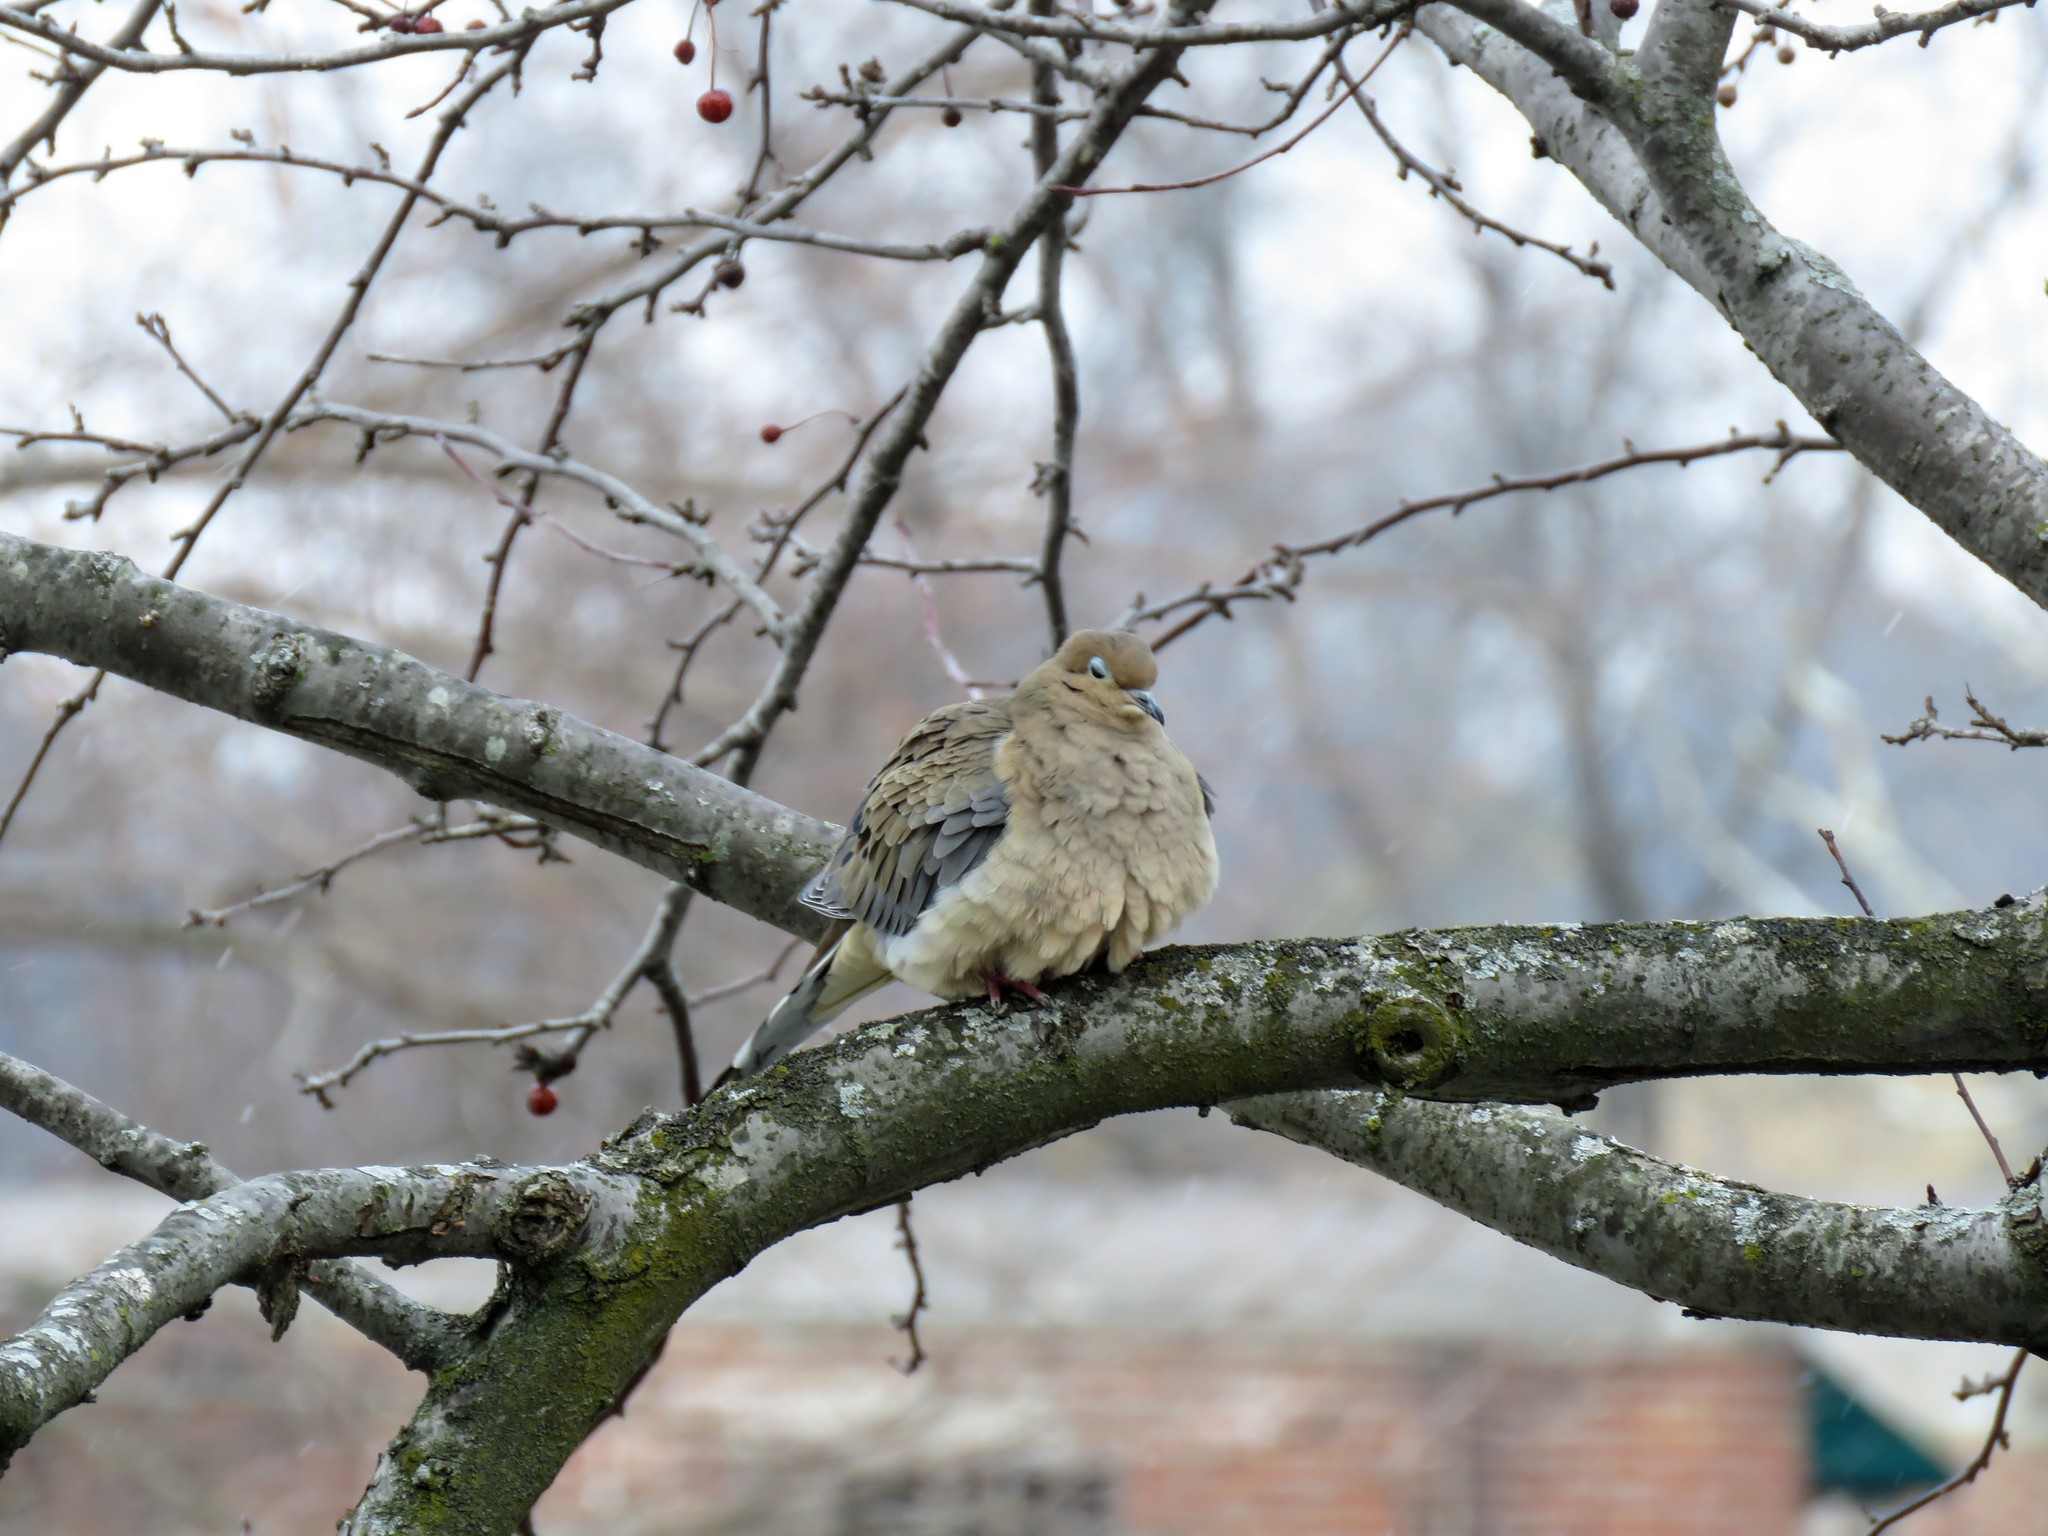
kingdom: Animalia
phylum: Chordata
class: Aves
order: Columbiformes
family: Columbidae
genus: Zenaida
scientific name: Zenaida macroura
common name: Mourning dove
